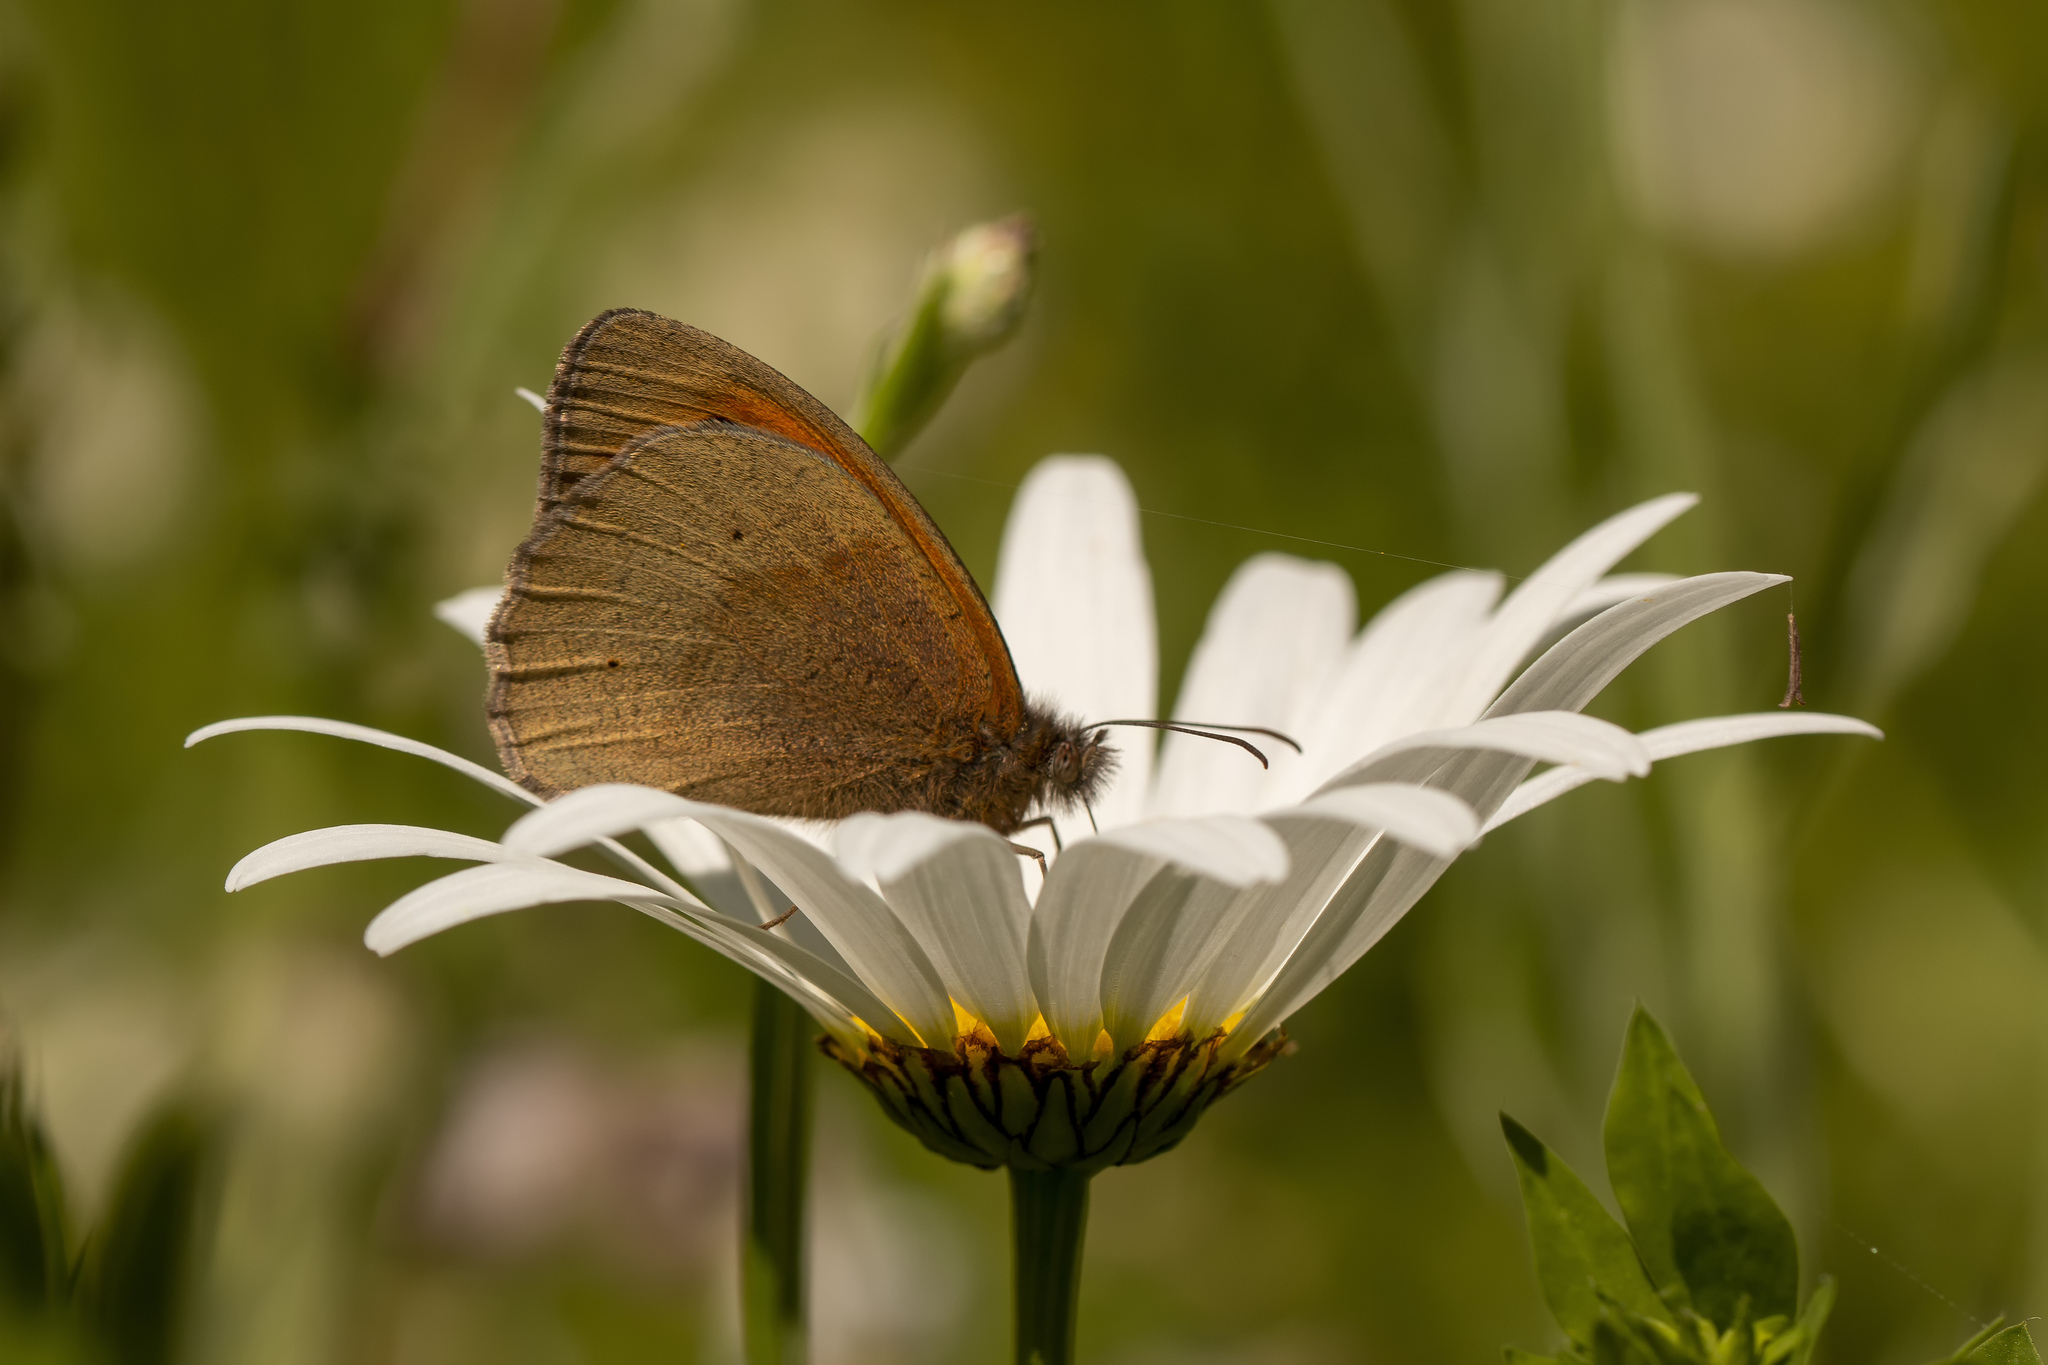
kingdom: Animalia
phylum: Arthropoda
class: Insecta
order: Lepidoptera
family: Nymphalidae
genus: Maniola
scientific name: Maniola jurtina
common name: Meadow brown
